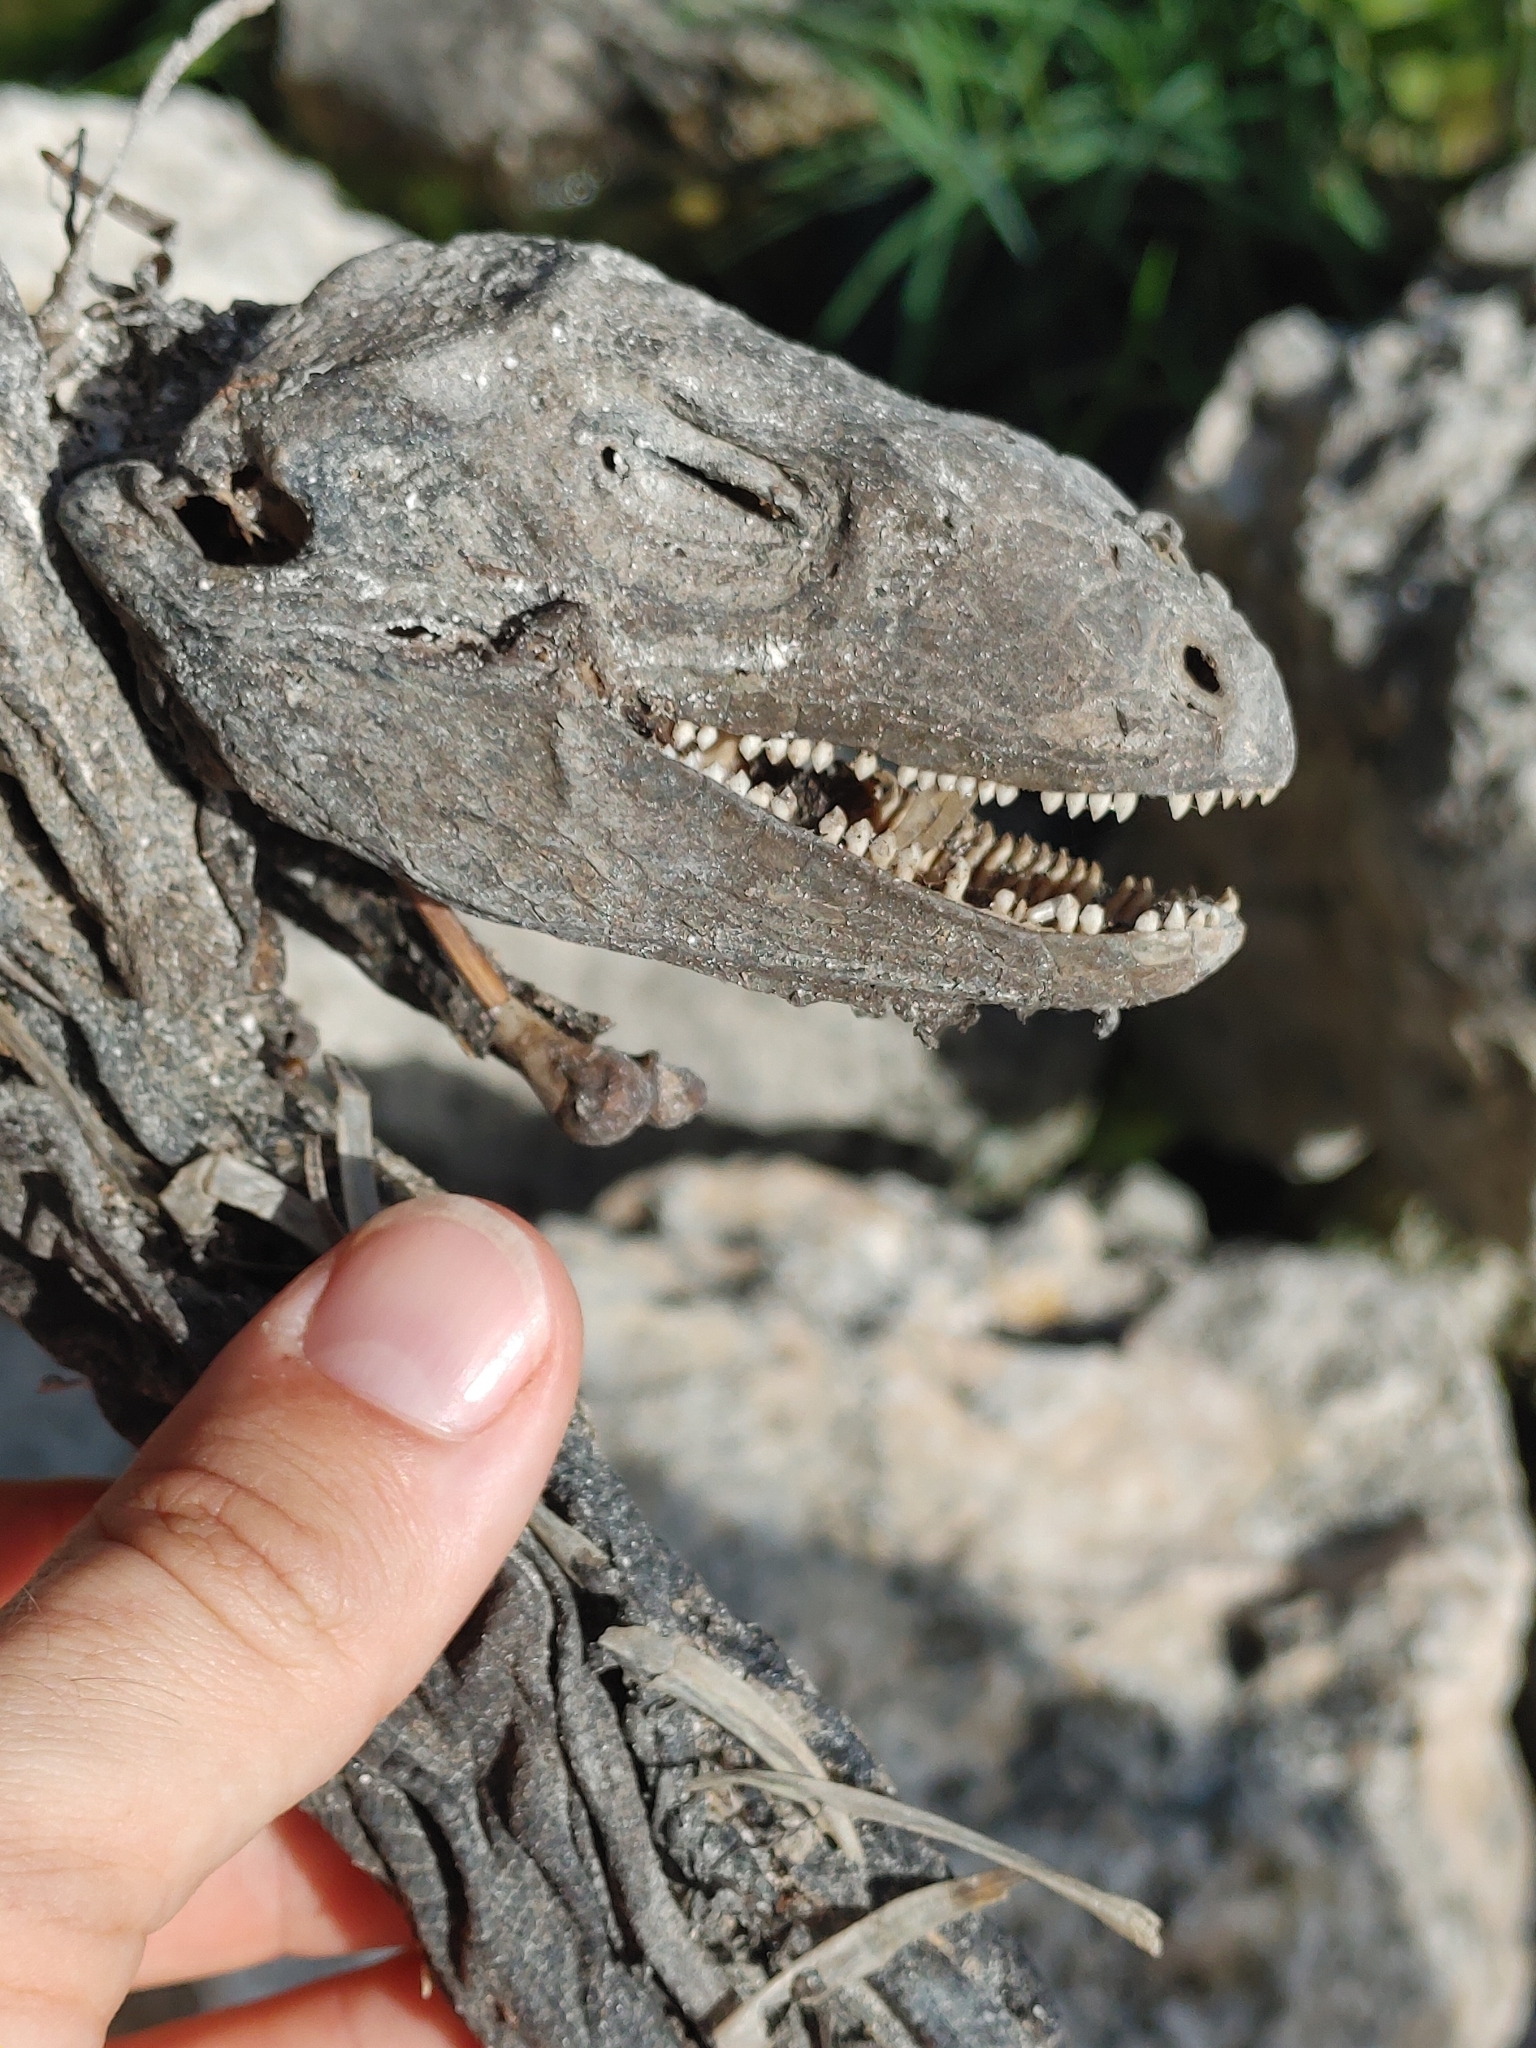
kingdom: Animalia
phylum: Chordata
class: Squamata
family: Iguanidae
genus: Iguana
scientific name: Iguana iguana
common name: Green iguana
